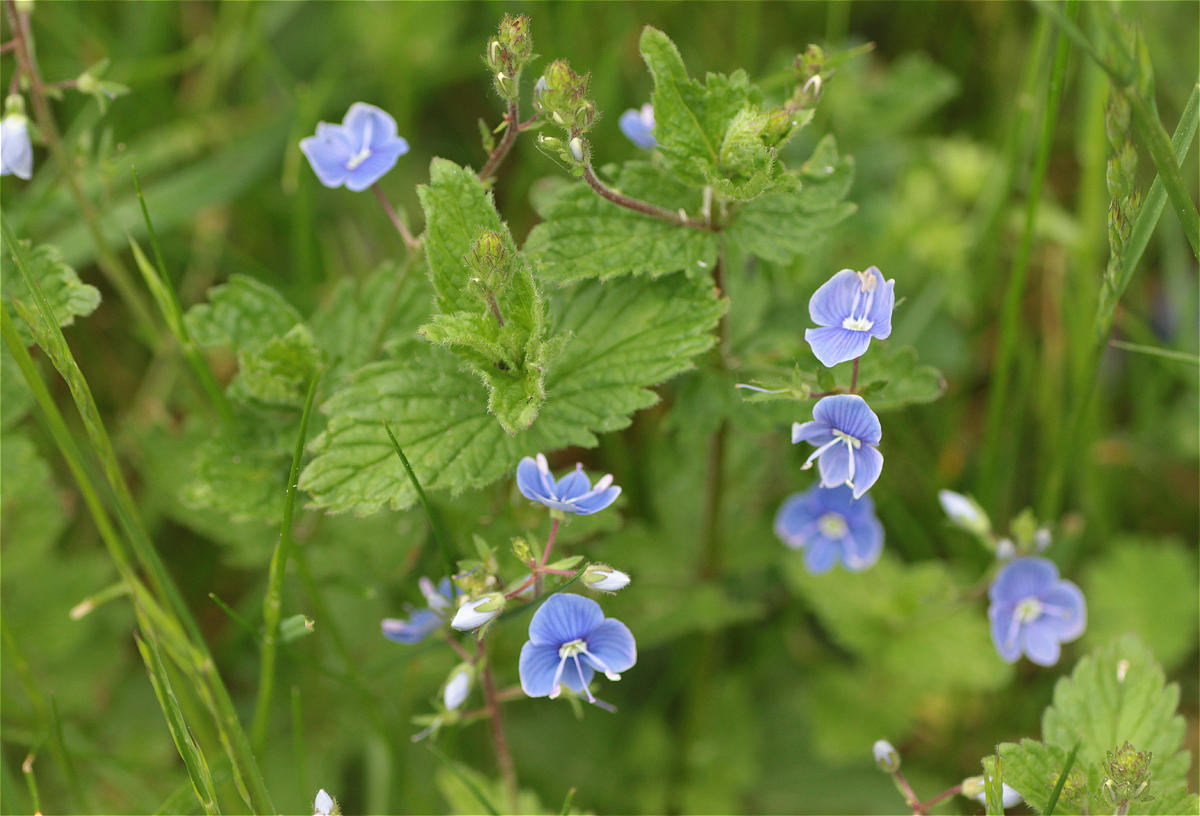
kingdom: Plantae
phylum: Tracheophyta
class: Magnoliopsida
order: Lamiales
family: Plantaginaceae
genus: Veronica
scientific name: Veronica chamaedrys
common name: Germander speedwell
